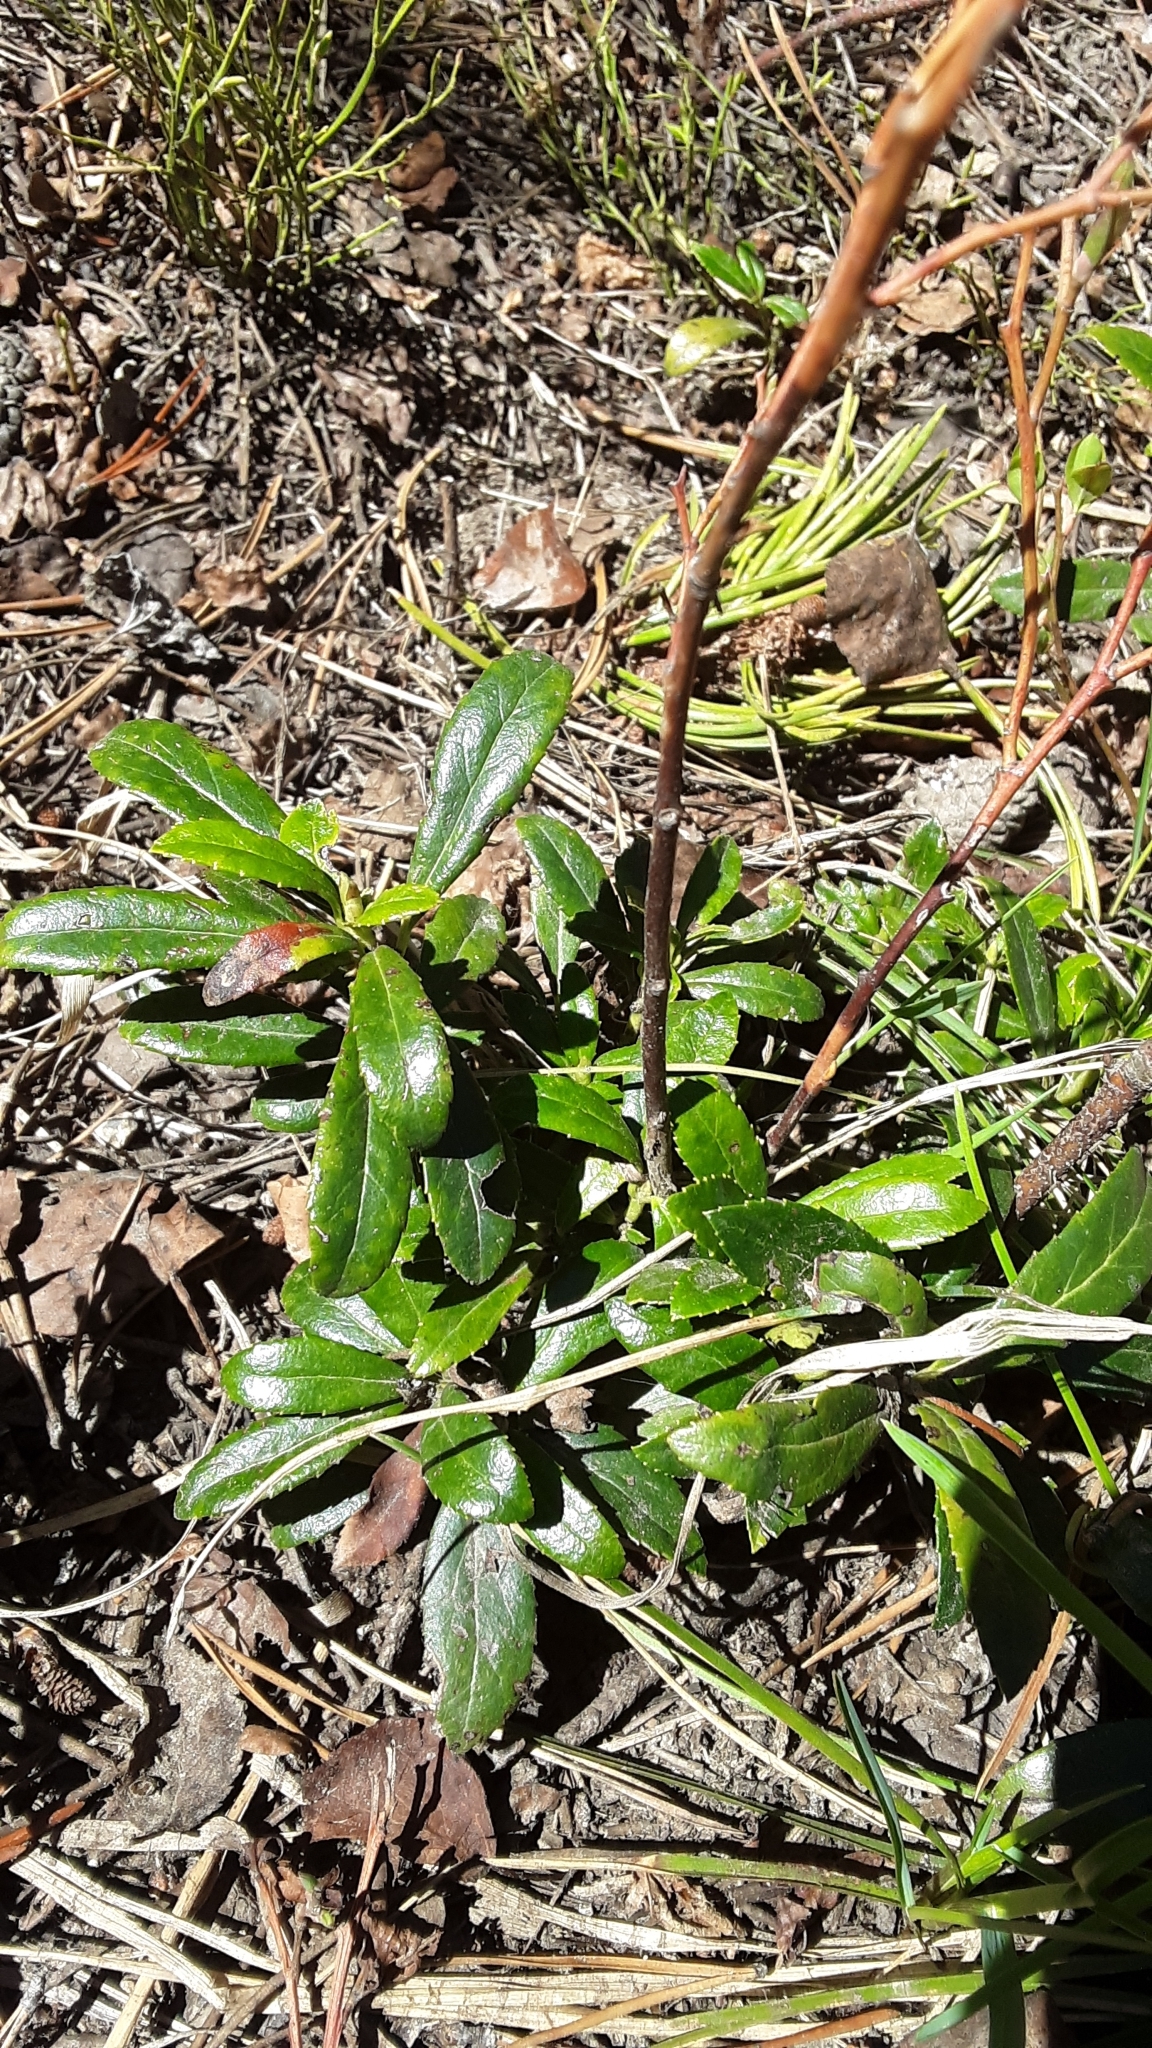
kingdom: Plantae
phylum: Tracheophyta
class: Magnoliopsida
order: Ericales
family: Ericaceae
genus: Chimaphila
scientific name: Chimaphila umbellata
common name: Pipsissewa
